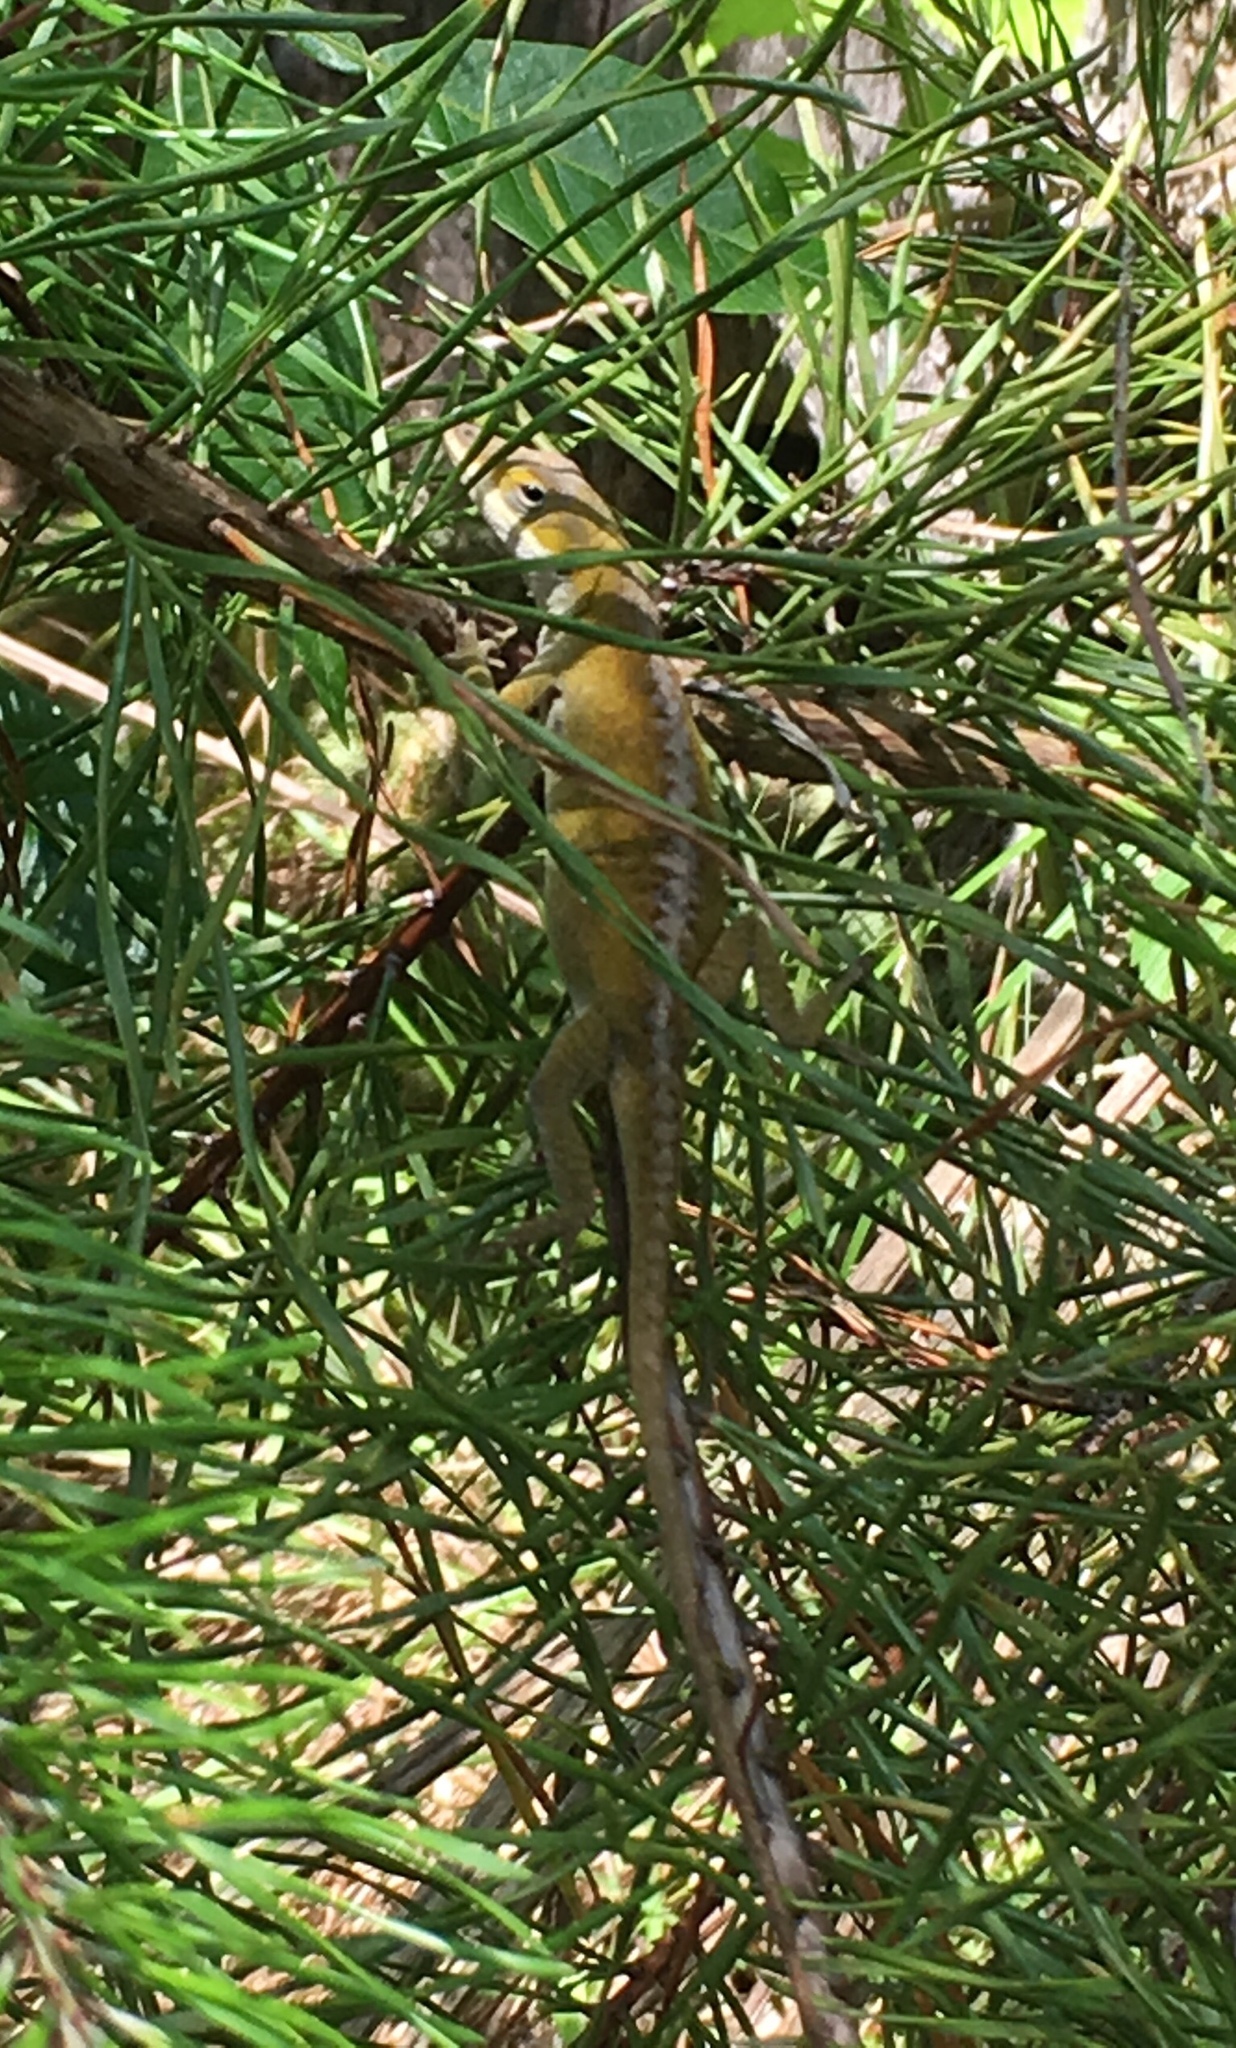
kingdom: Animalia
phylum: Chordata
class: Squamata
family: Dactyloidae
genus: Anolis
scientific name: Anolis carolinensis
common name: Green anole
